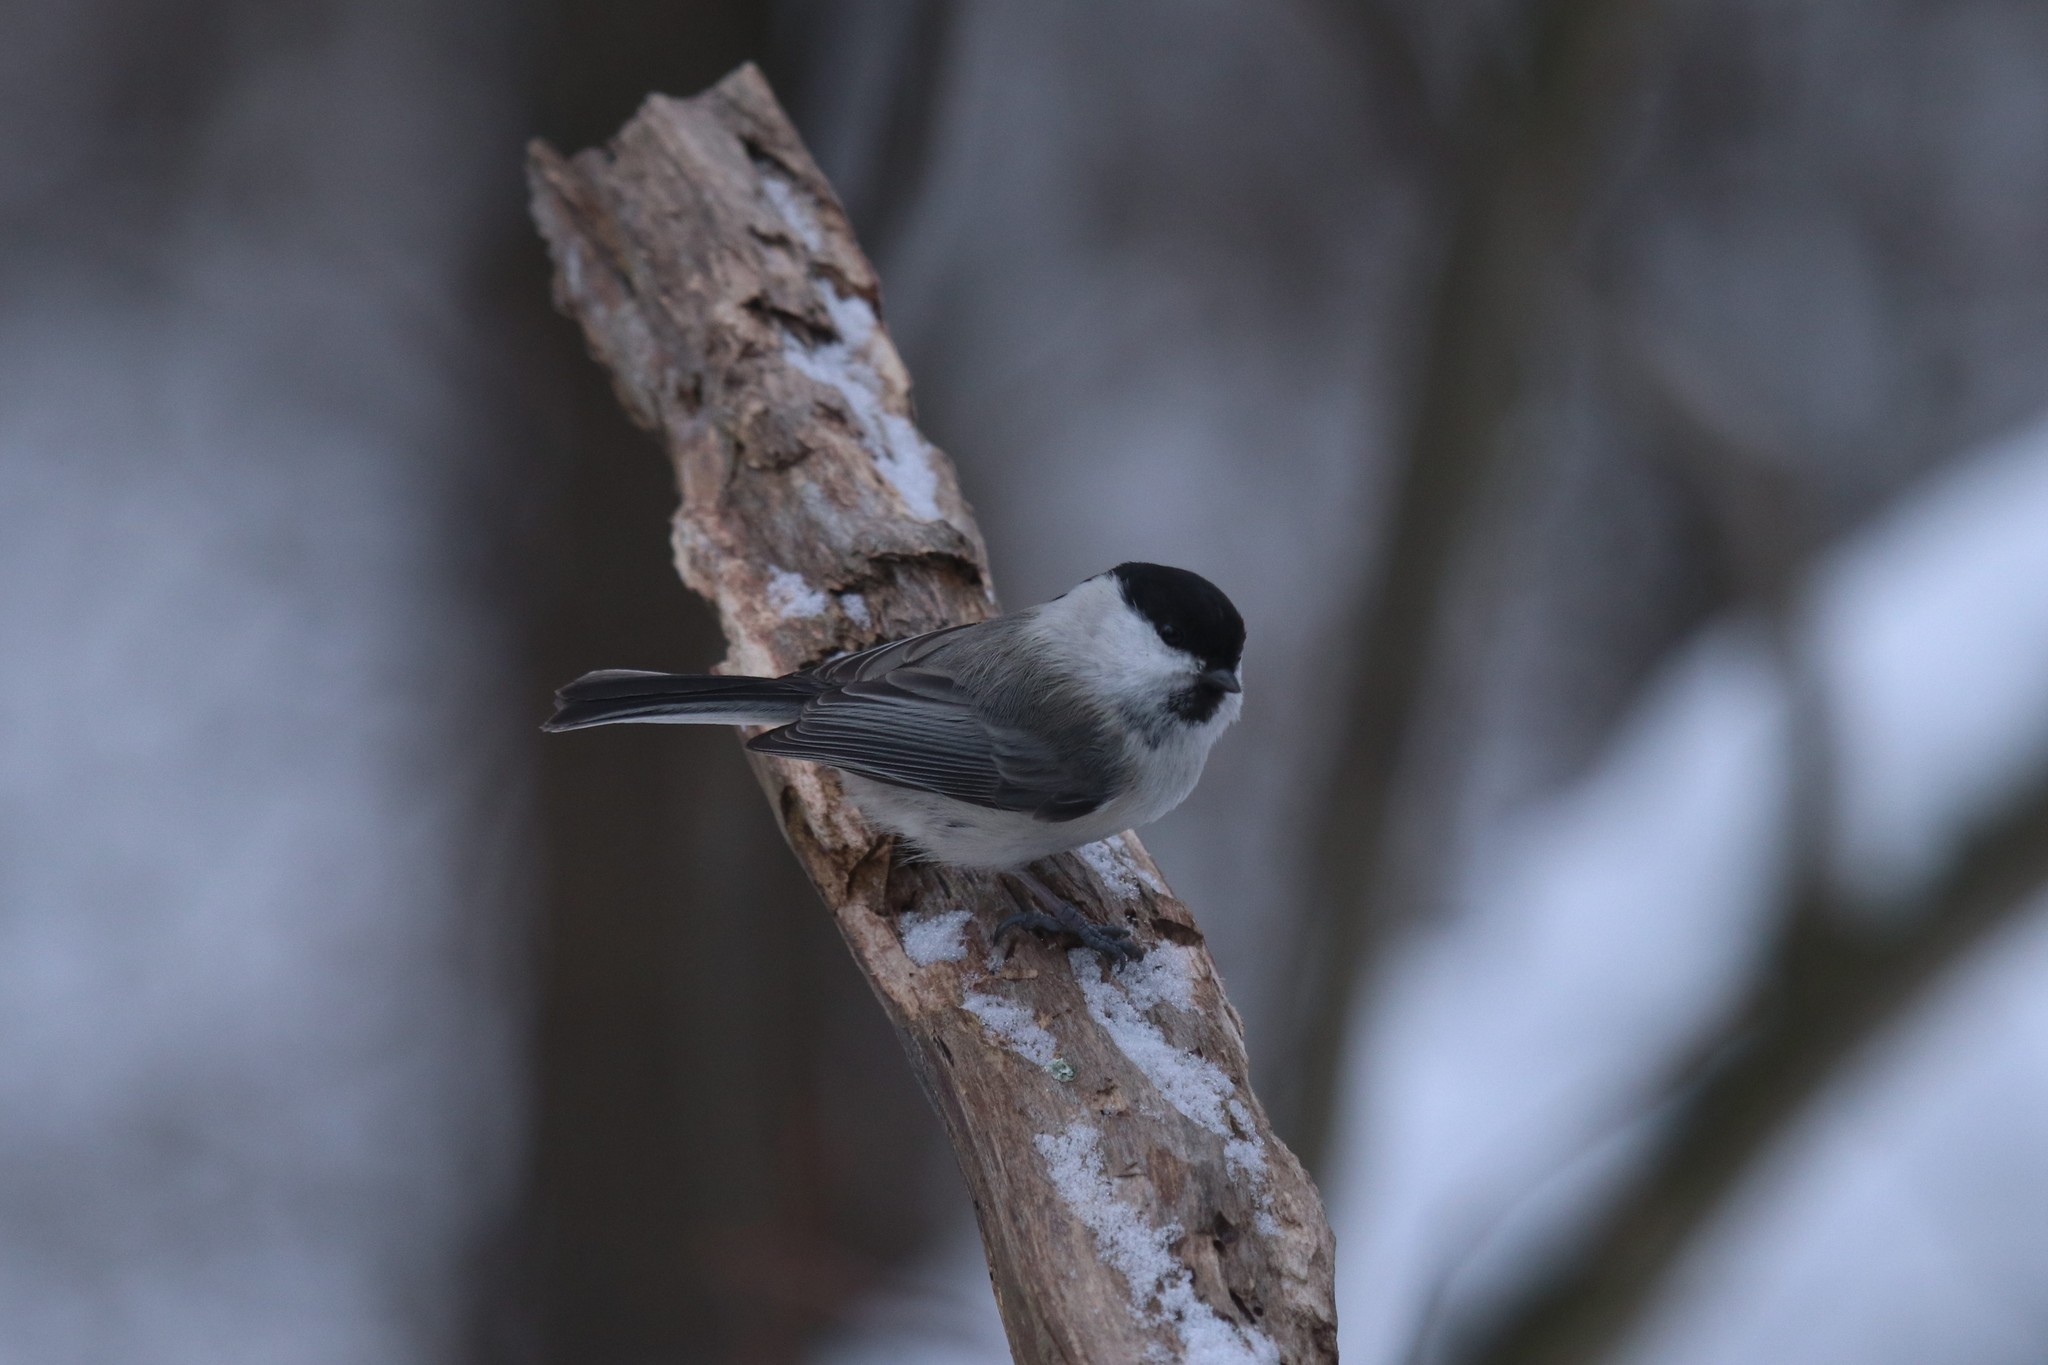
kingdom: Animalia
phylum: Chordata
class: Aves
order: Passeriformes
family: Paridae
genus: Poecile
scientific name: Poecile montanus
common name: Willow tit
